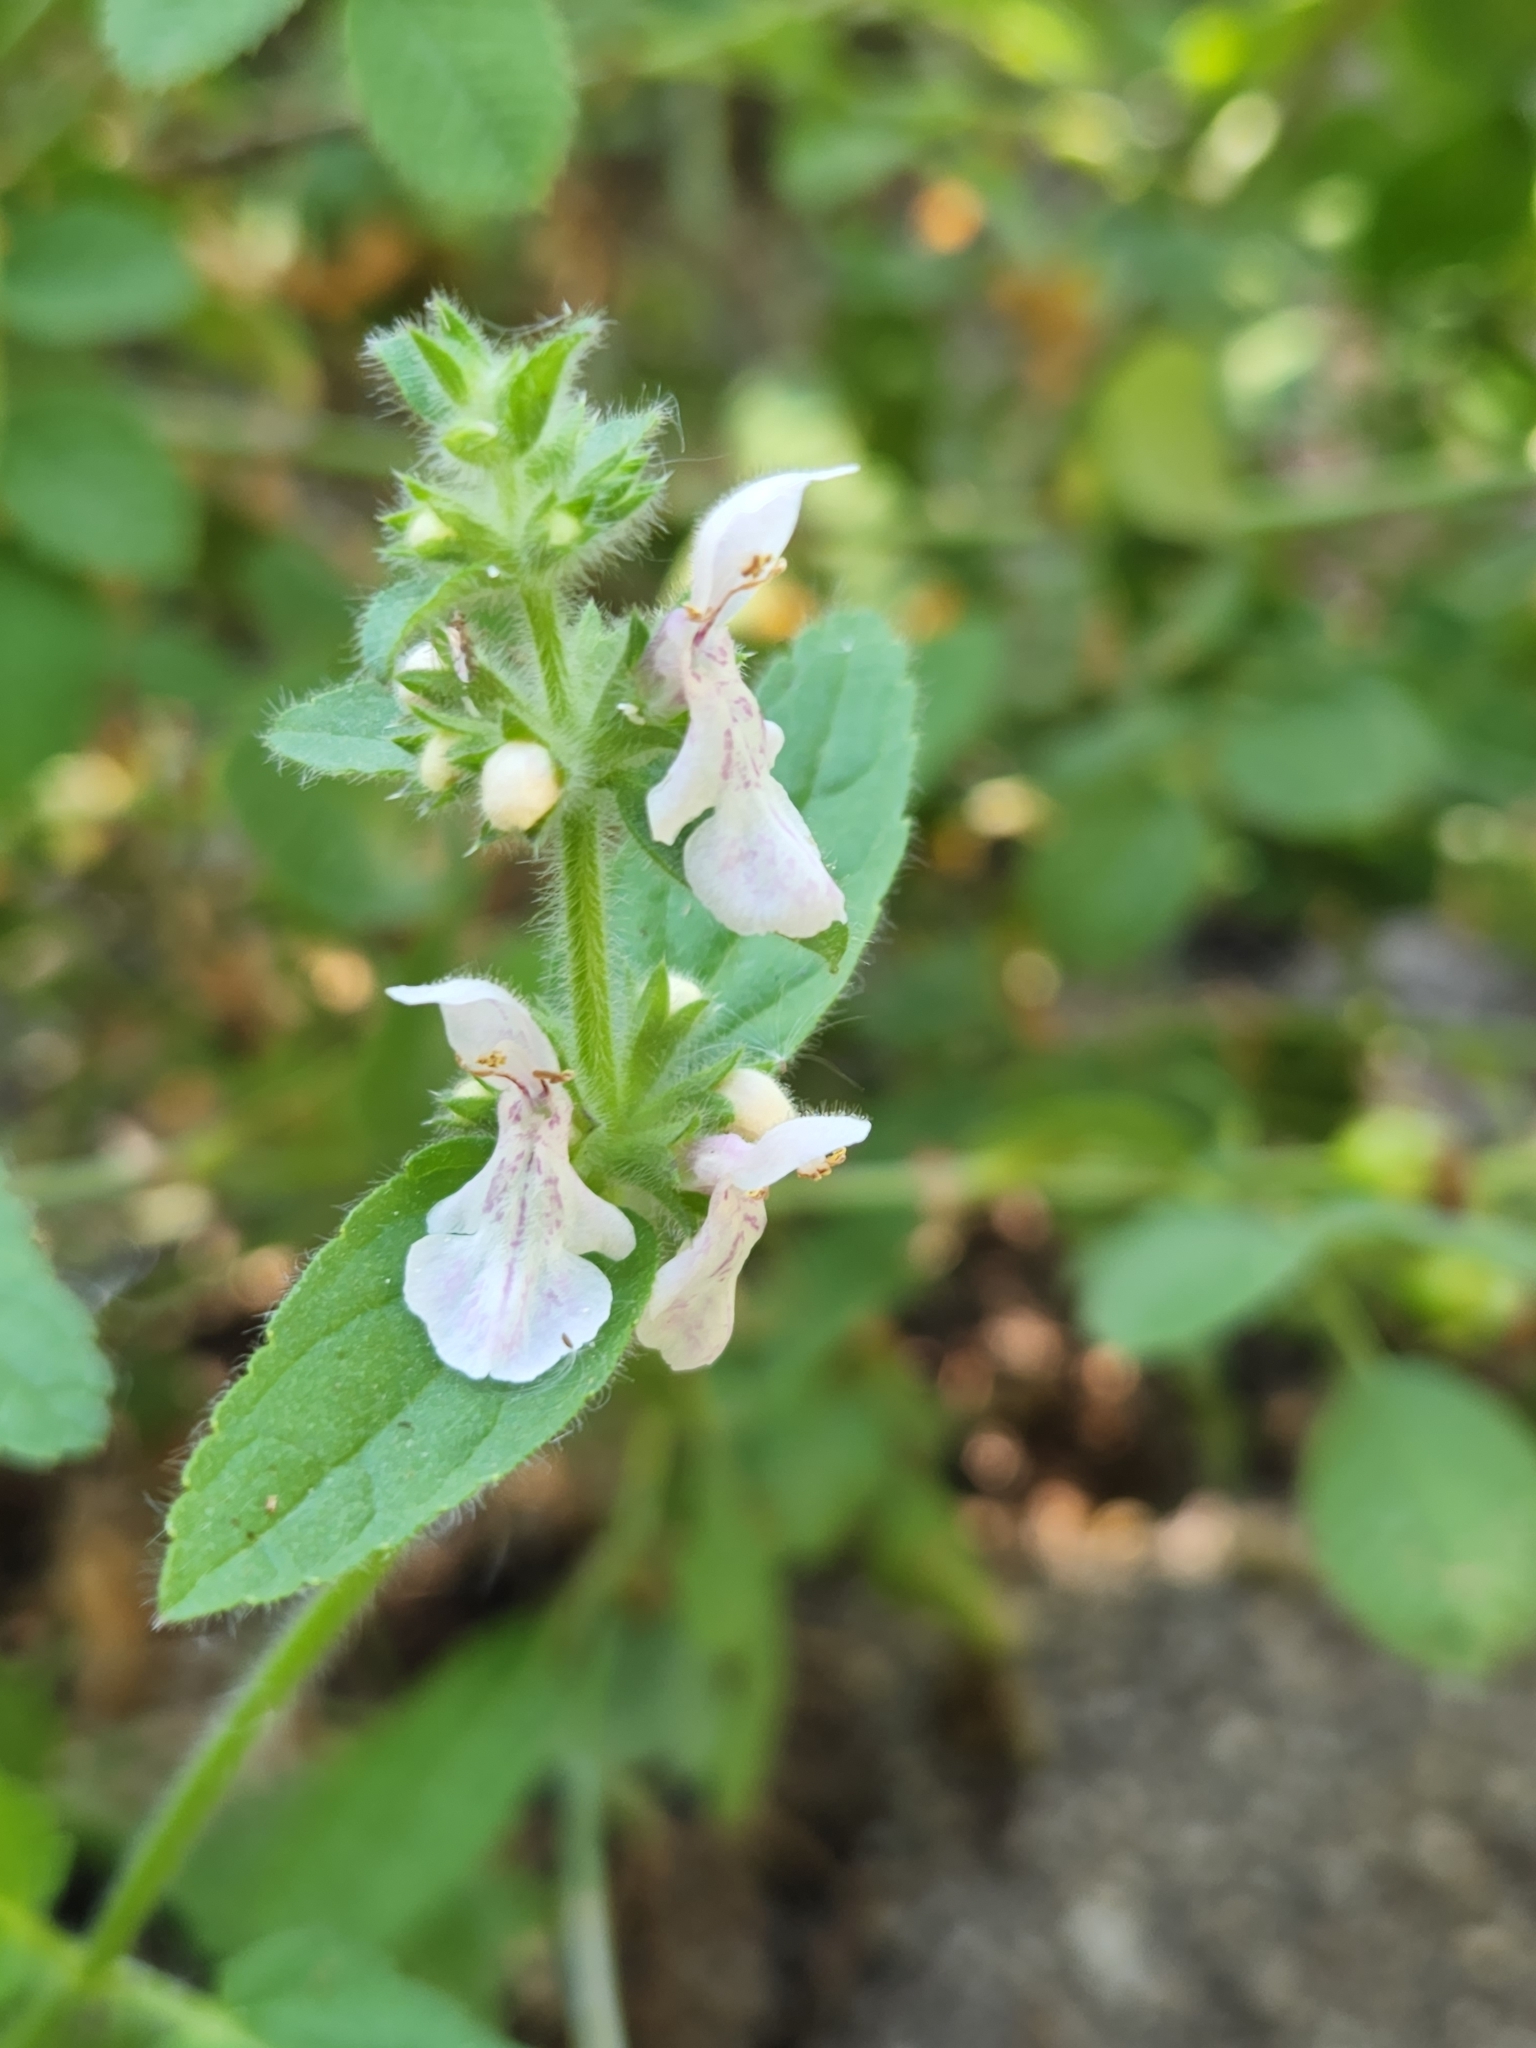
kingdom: Plantae
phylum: Tracheophyta
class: Magnoliopsida
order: Lamiales
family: Lamiaceae
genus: Stachys
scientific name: Stachys stebbinsii
